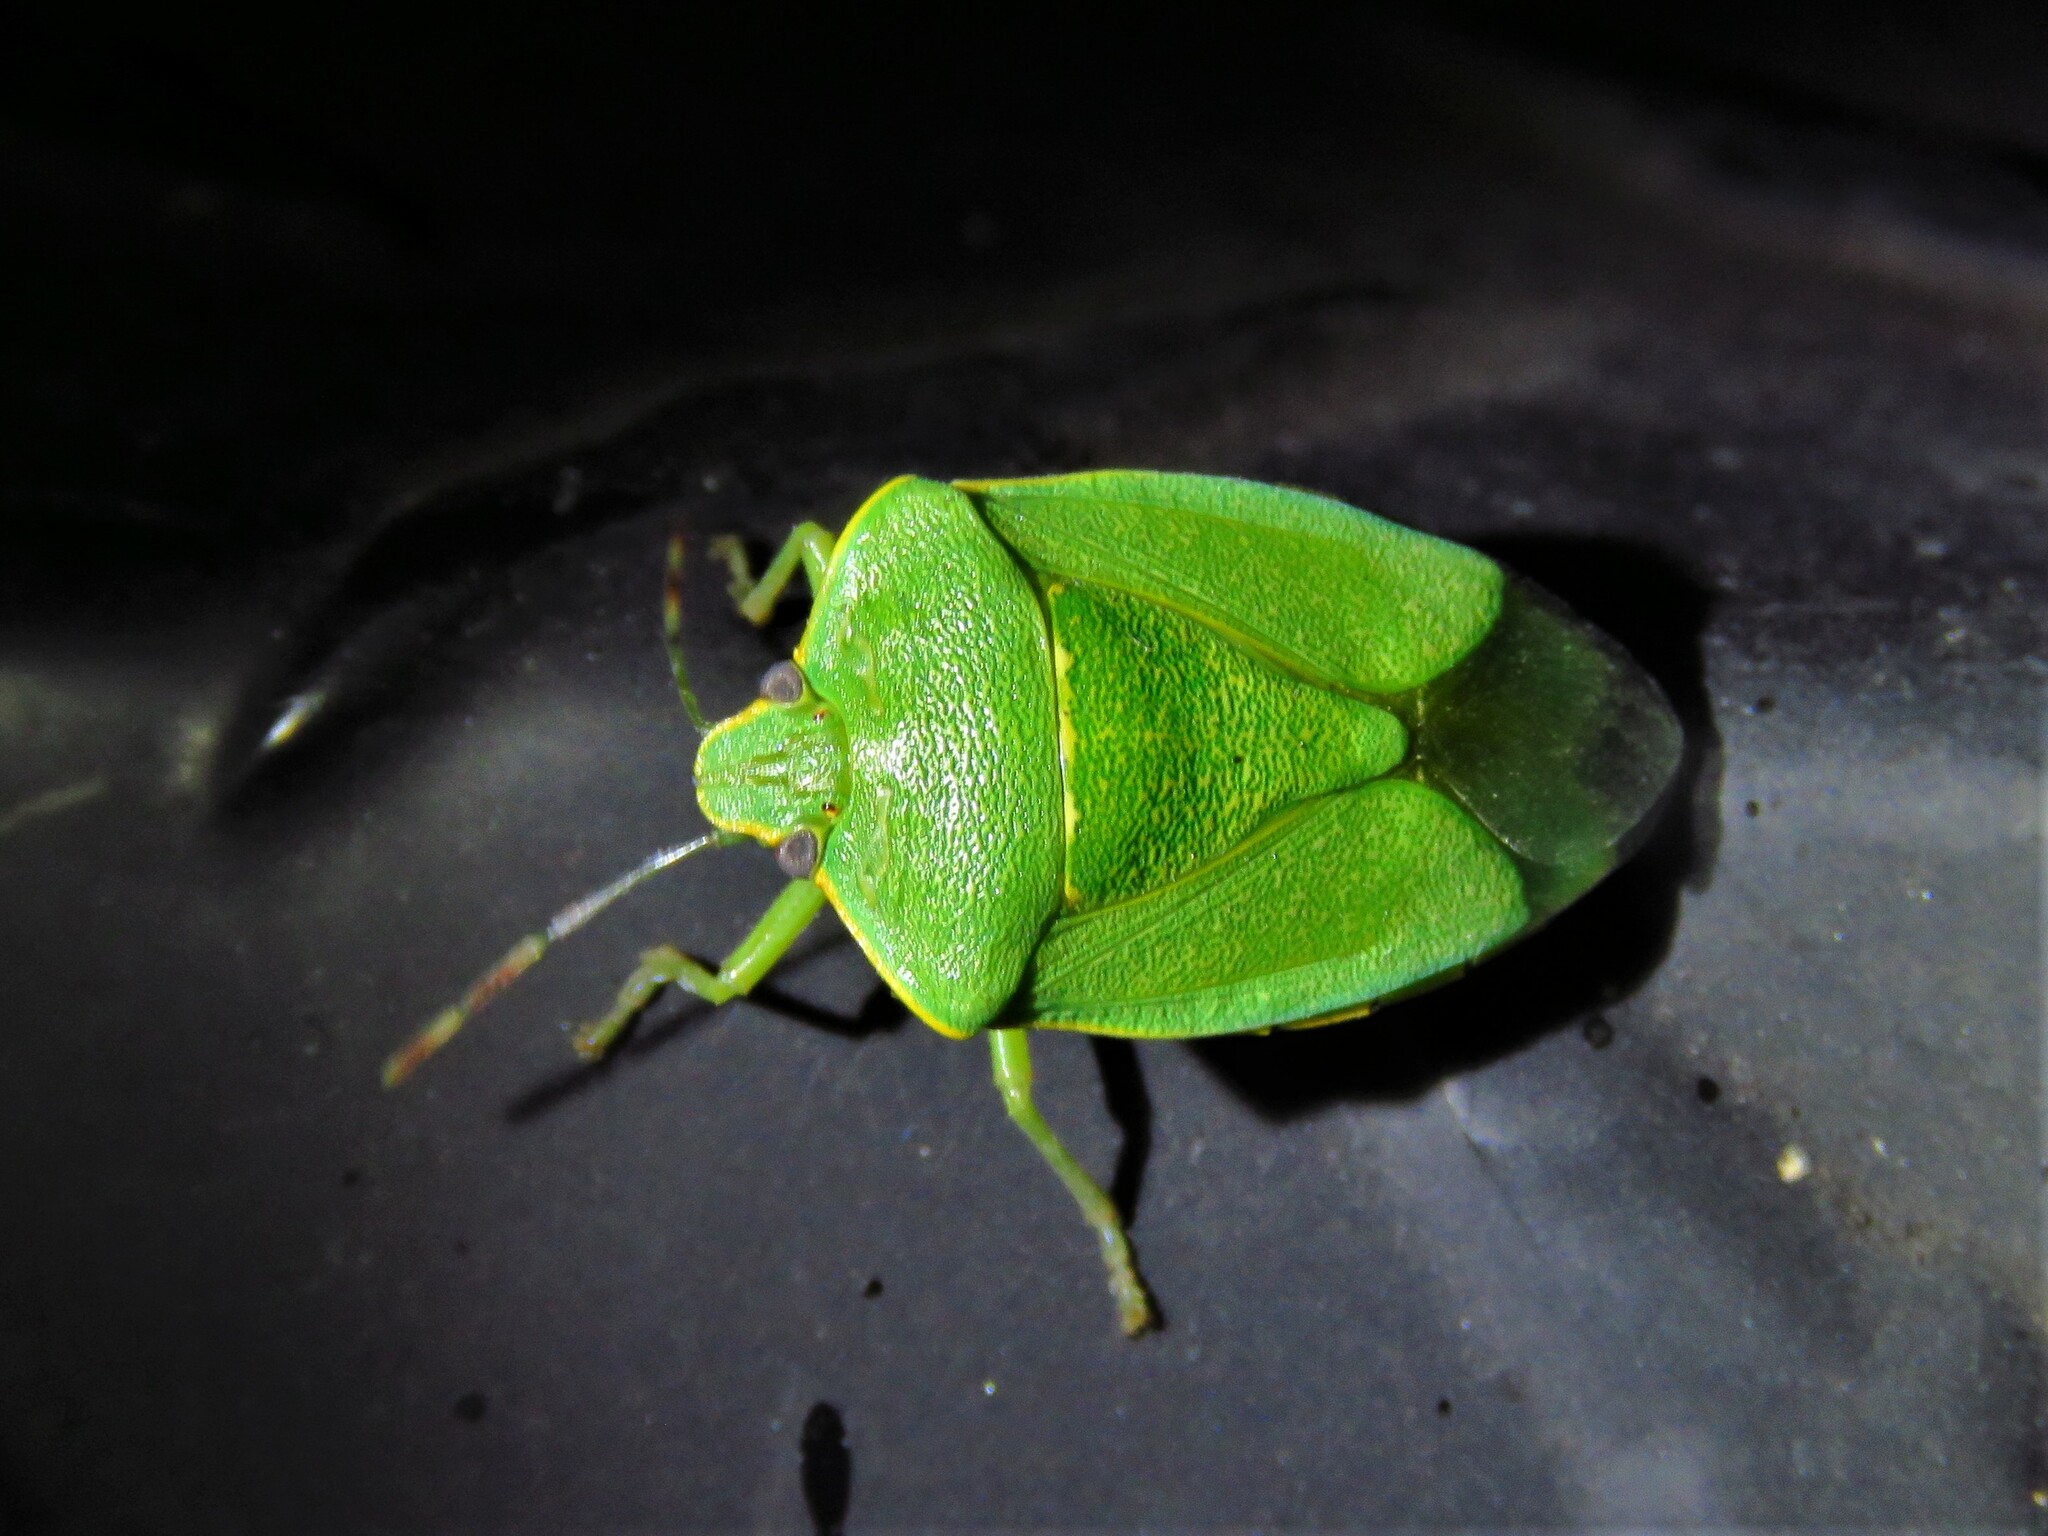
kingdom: Animalia
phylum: Arthropoda
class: Insecta
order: Hemiptera
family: Pentatomidae
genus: Chinavia
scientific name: Chinavia hilaris
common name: Green stink bug
